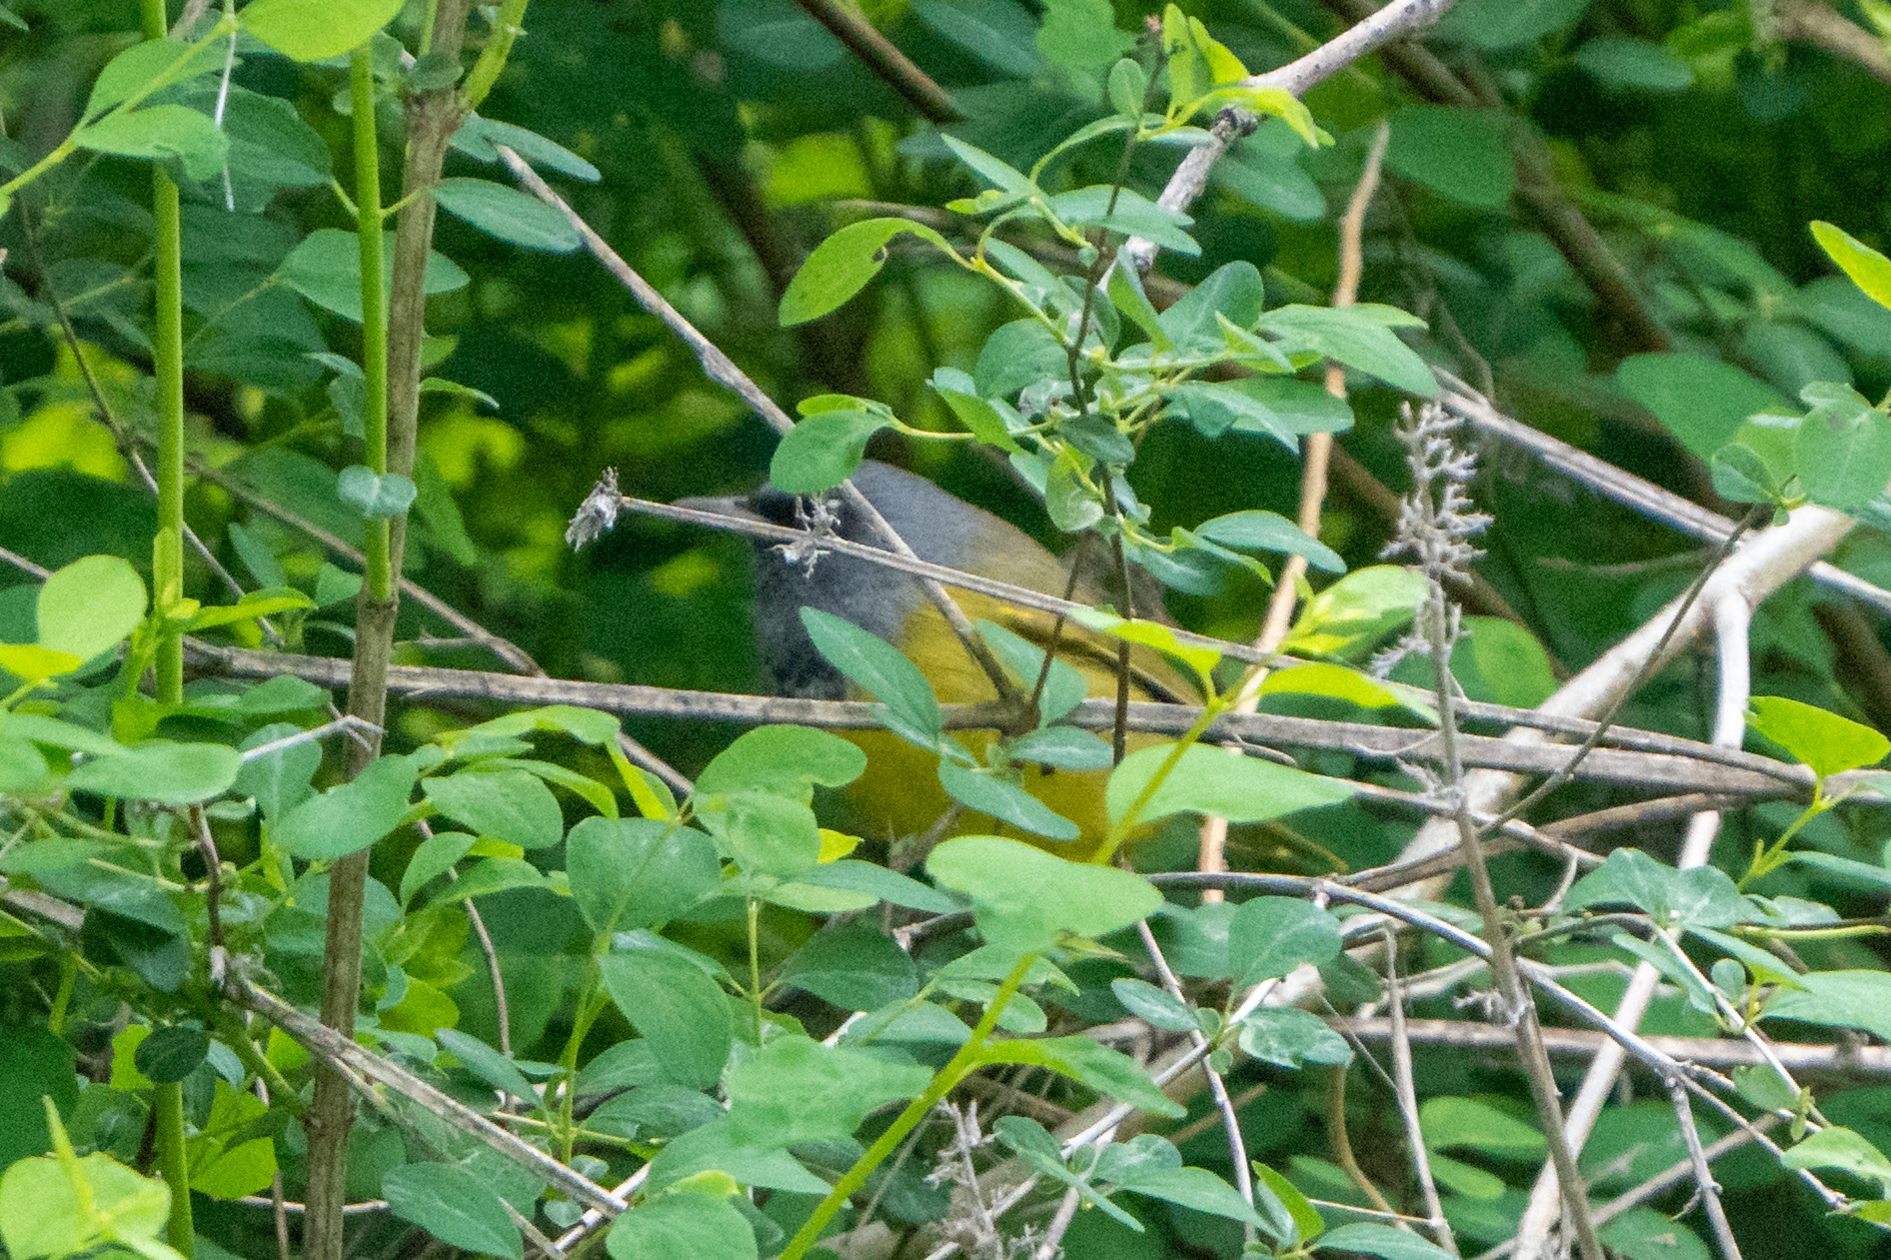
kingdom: Animalia
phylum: Chordata
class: Aves
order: Passeriformes
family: Parulidae
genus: Geothlypis
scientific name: Geothlypis tolmiei
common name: Macgillivray's warbler
